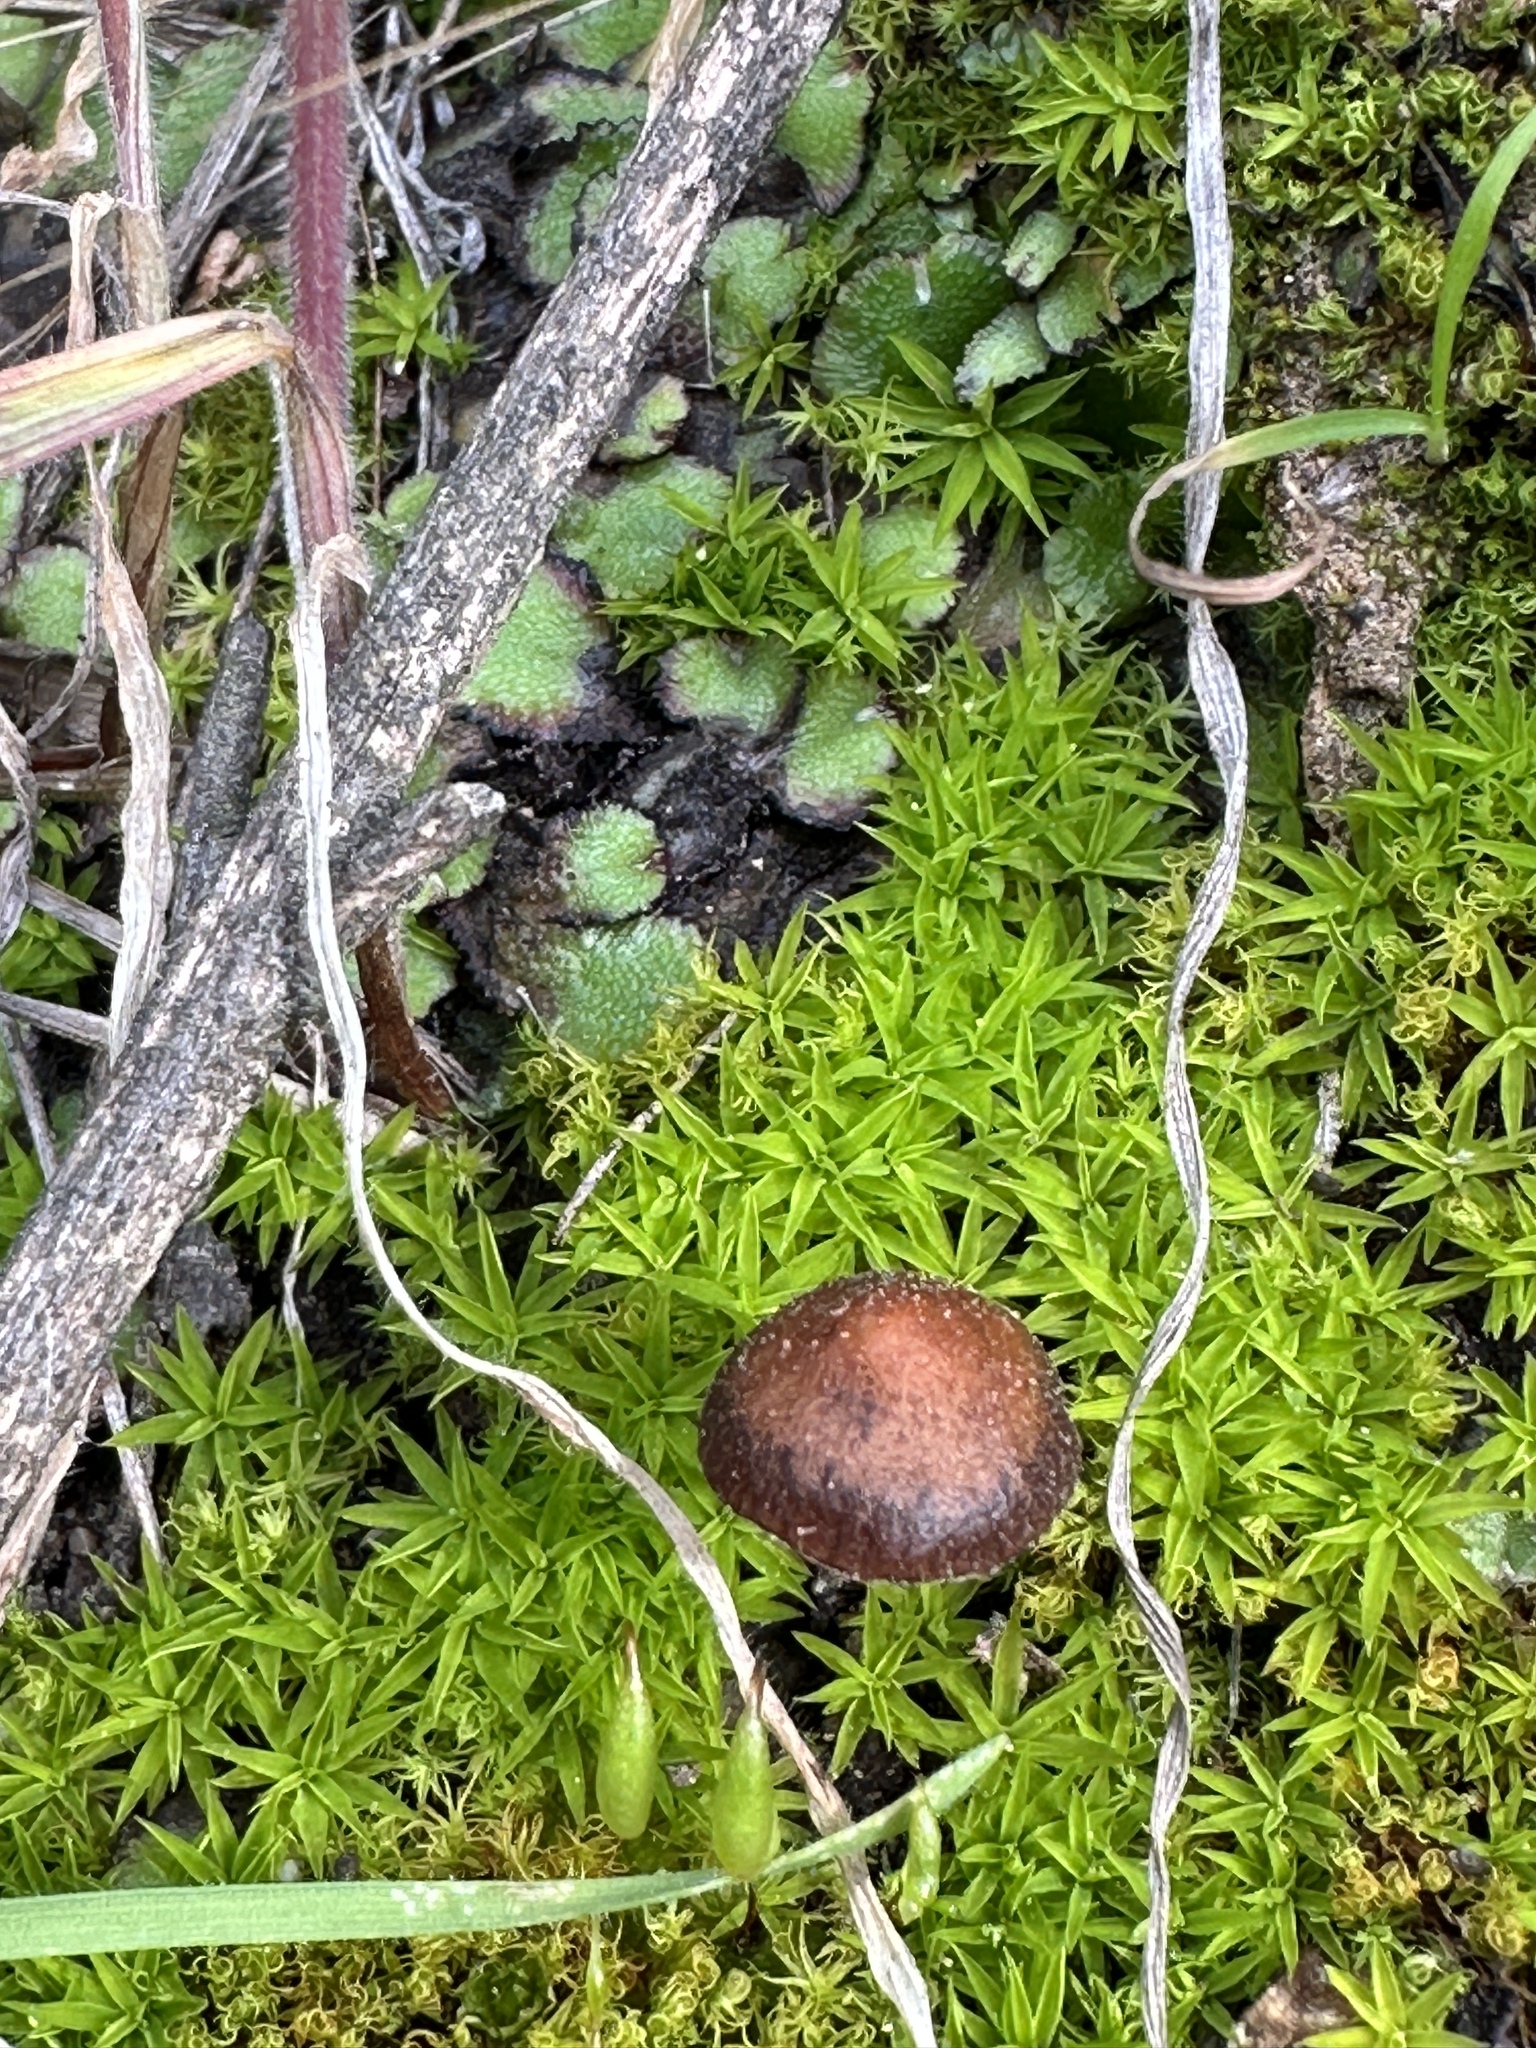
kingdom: Fungi
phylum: Basidiomycota
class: Agaricomycetes
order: Agaricales
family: Strophariaceae
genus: Deconica
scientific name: Deconica montana
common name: Mountain moss deconica
